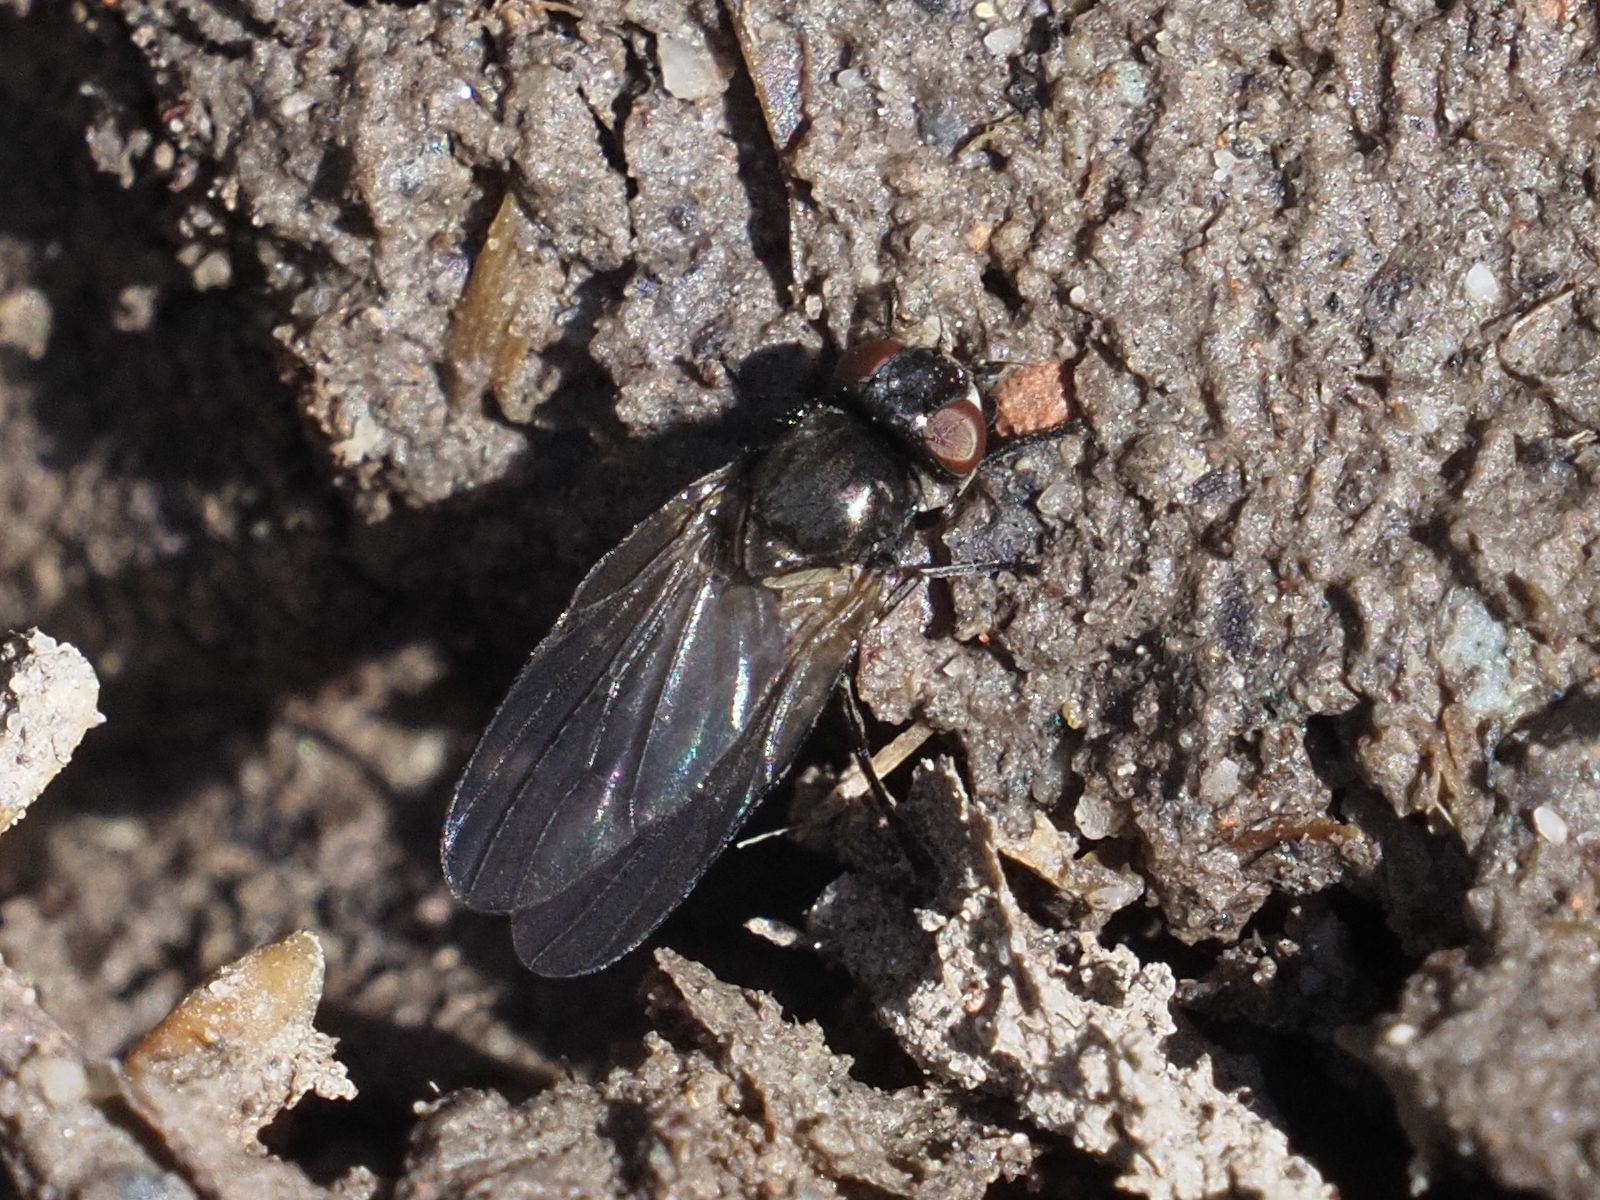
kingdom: Animalia
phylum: Arthropoda
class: Insecta
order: Diptera
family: Lonchaeidae
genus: Earomyia
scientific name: Earomyia lonchaeoides
